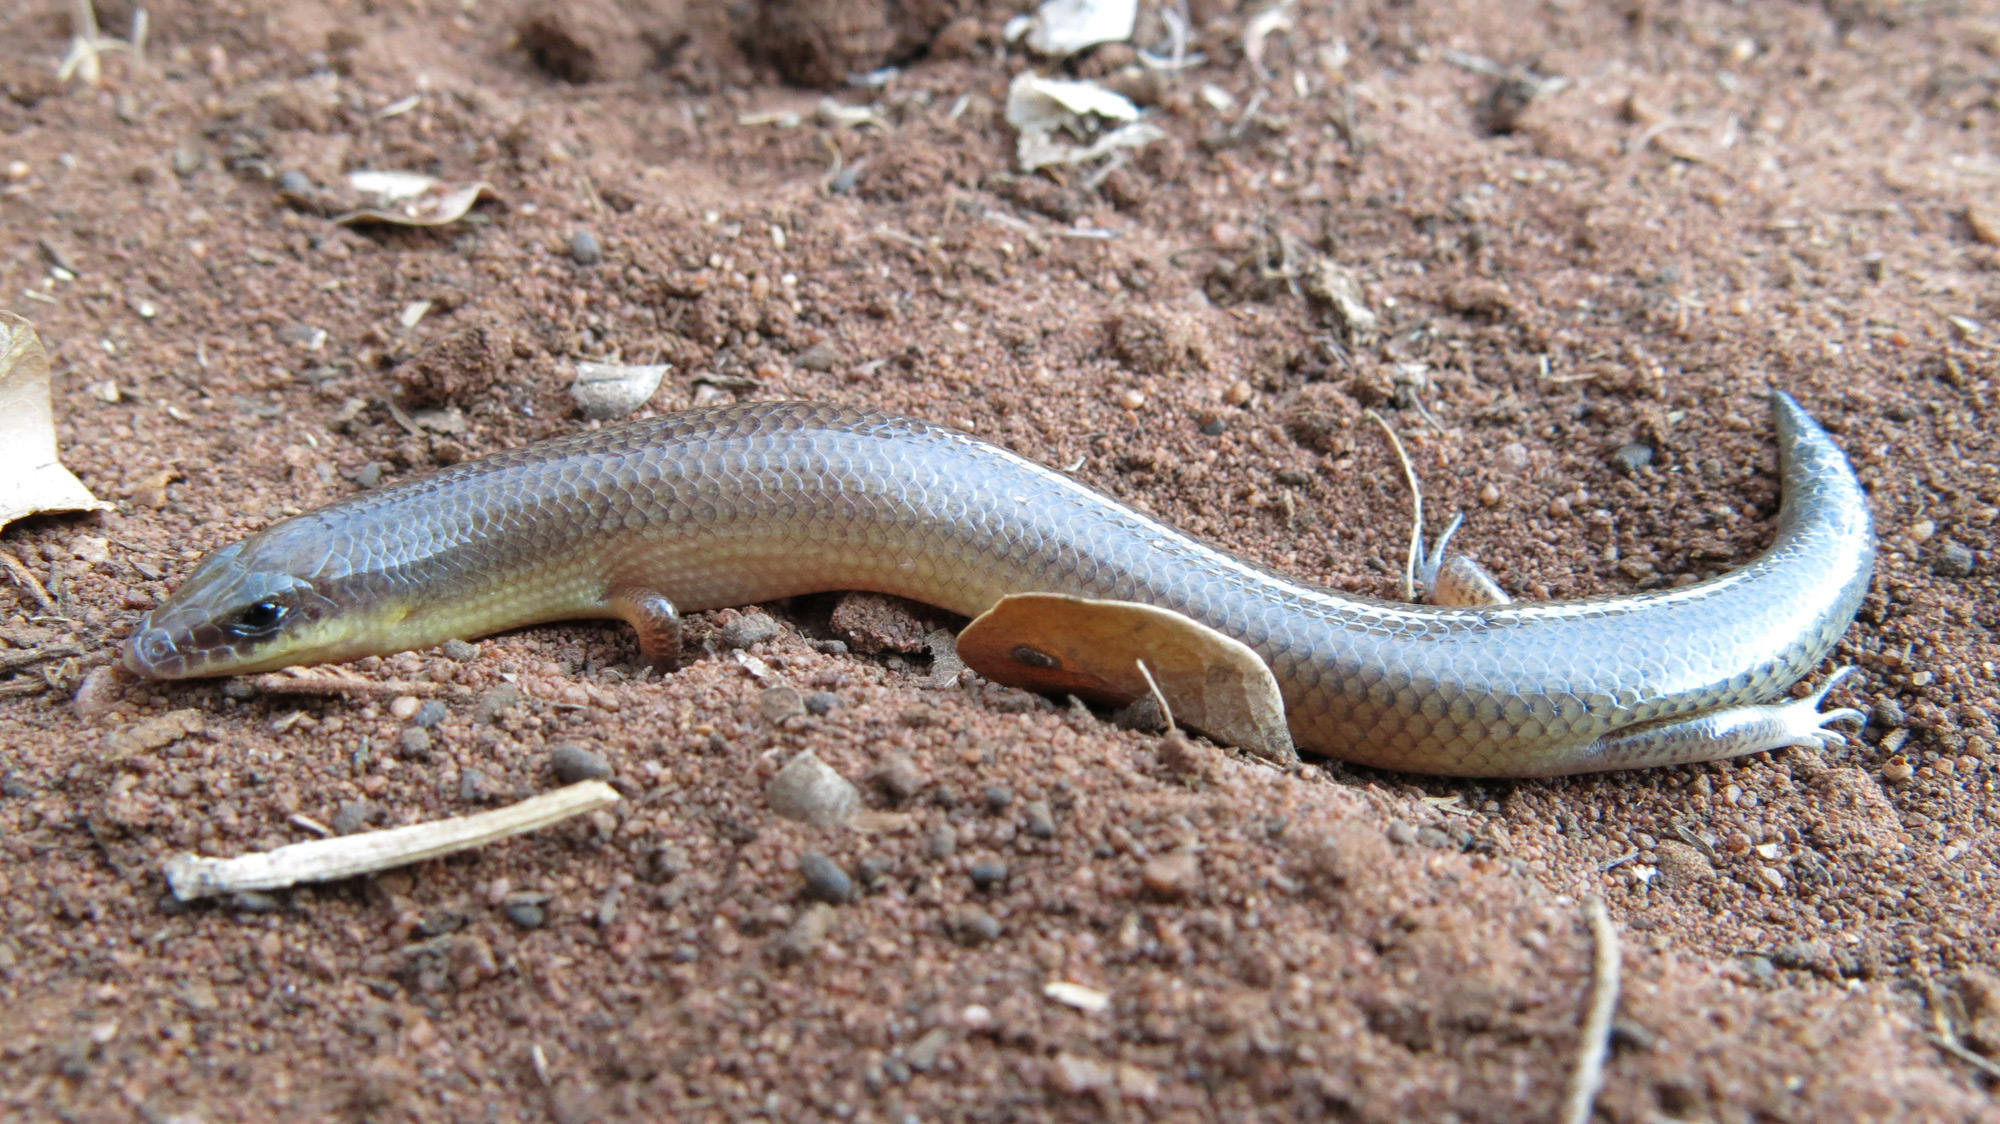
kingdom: Animalia
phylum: Chordata
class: Squamata
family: Scincidae
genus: Mochlus
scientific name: Mochlus sundevallii
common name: Peters' eyelid skink
